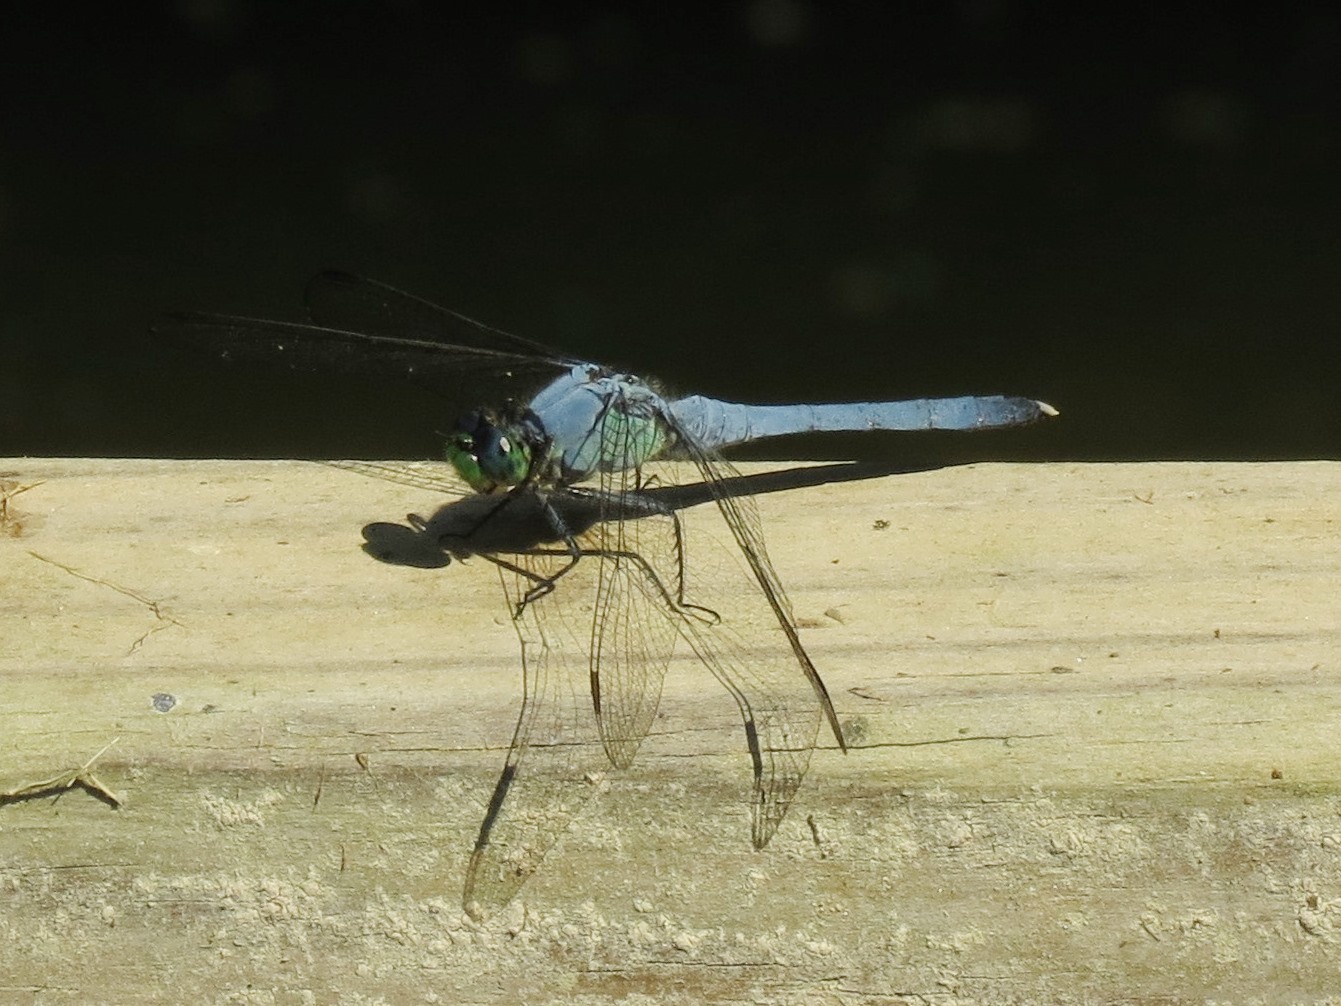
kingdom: Animalia
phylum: Arthropoda
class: Insecta
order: Odonata
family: Libellulidae
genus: Erythemis
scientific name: Erythemis simplicicollis
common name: Eastern pondhawk
